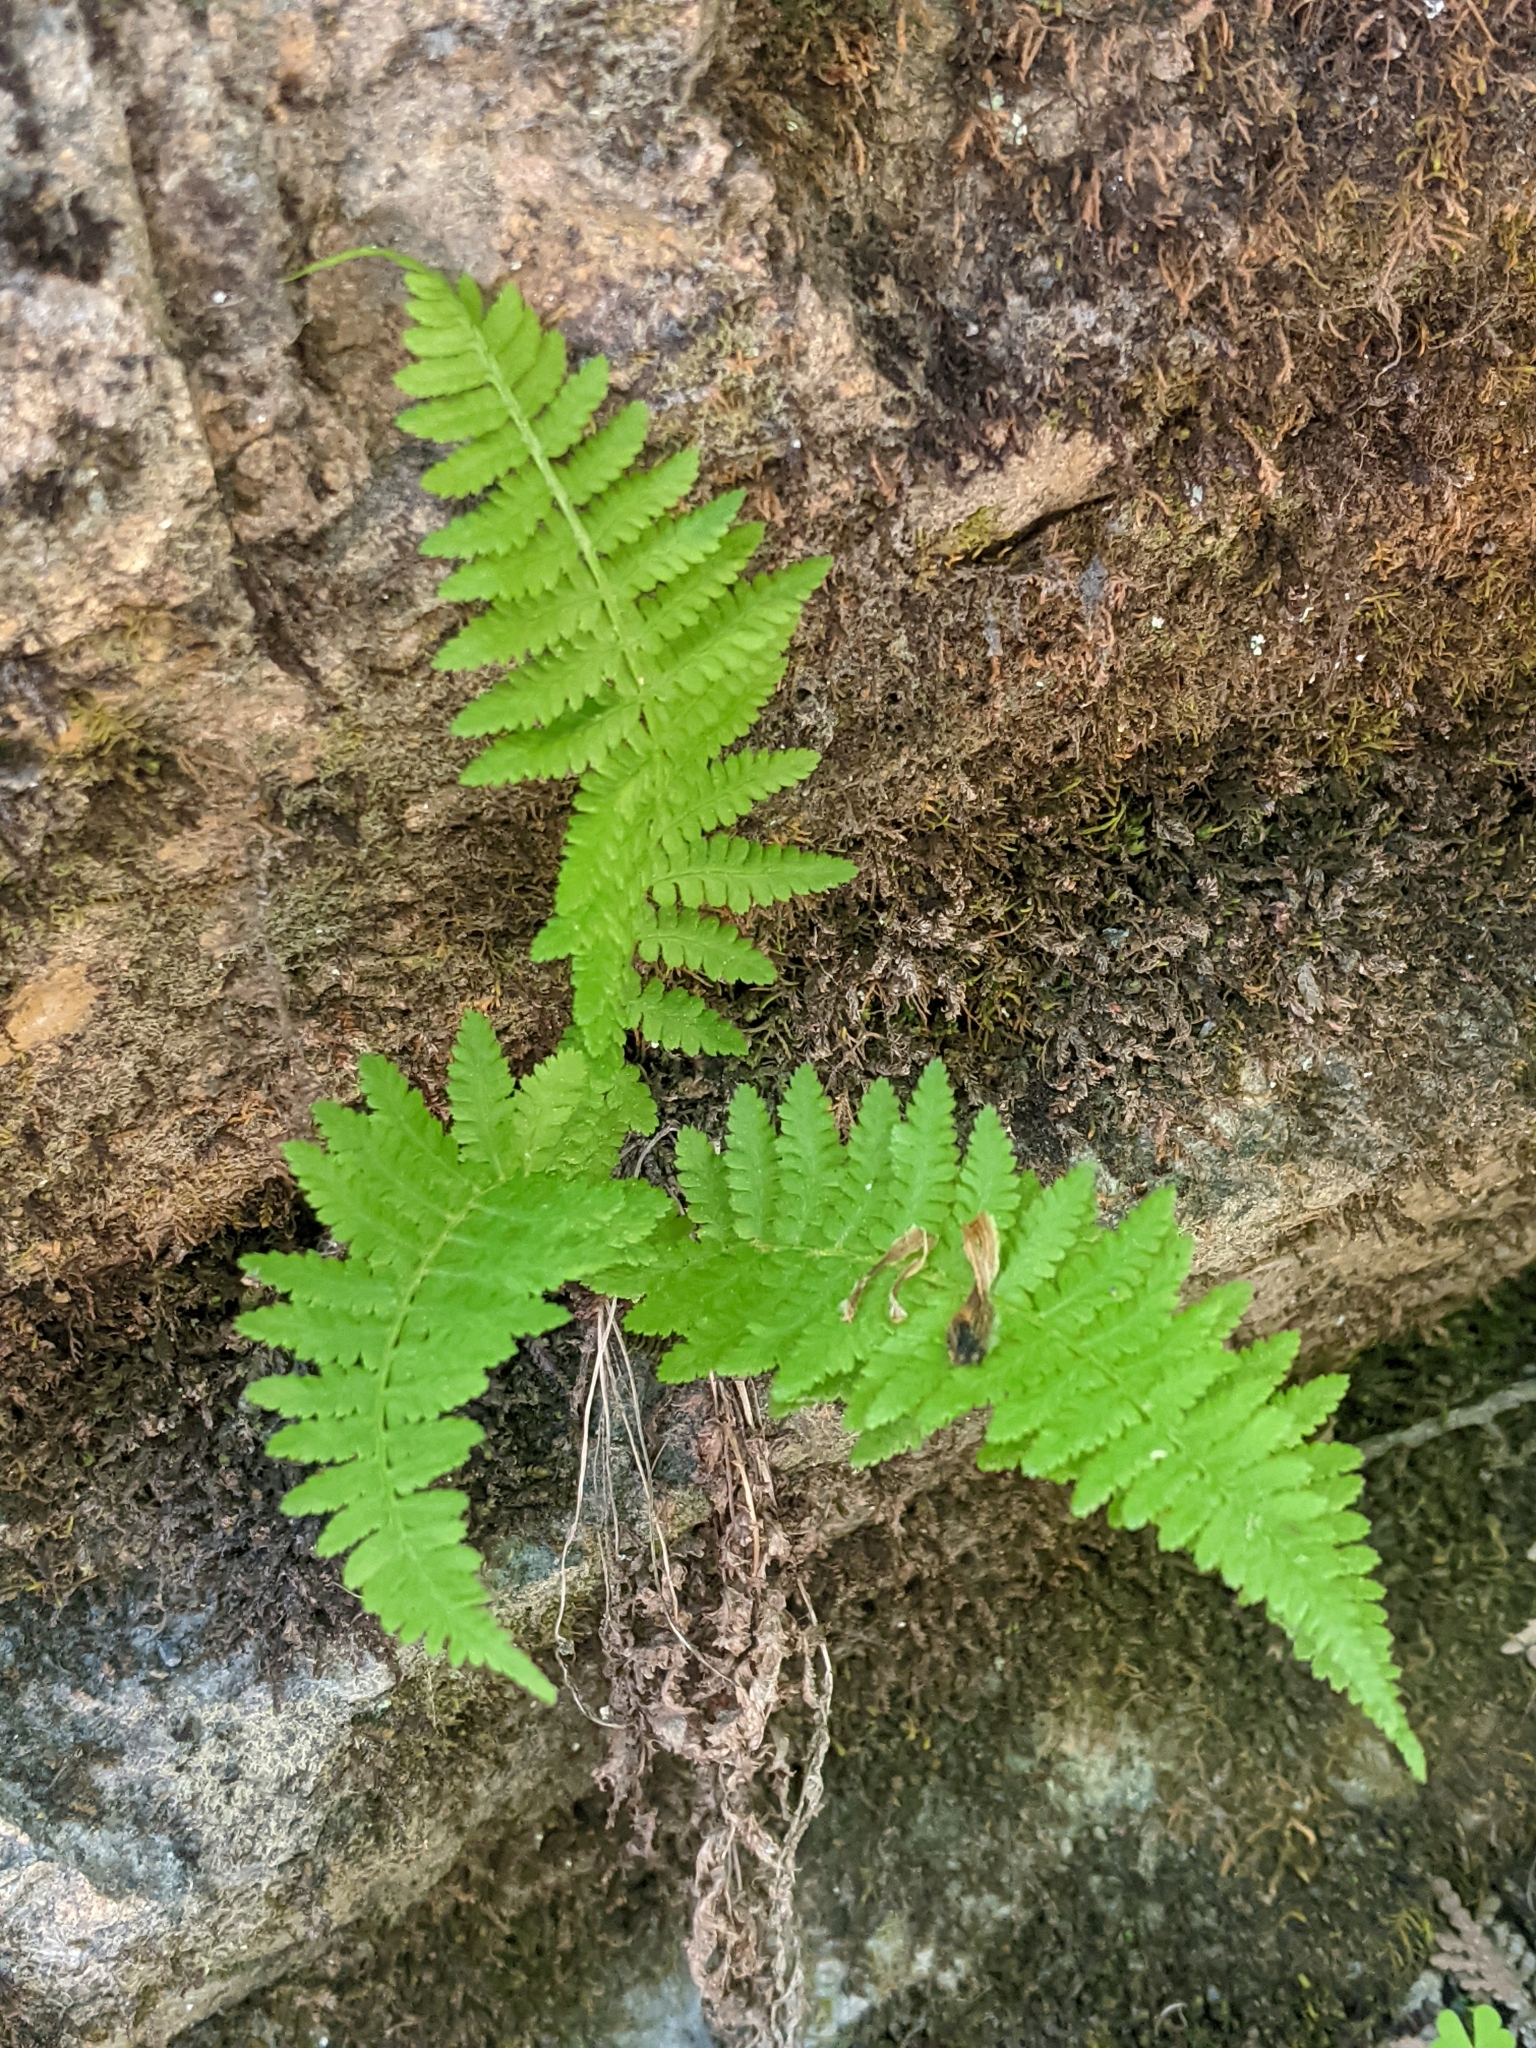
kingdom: Plantae
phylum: Tracheophyta
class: Polypodiopsida
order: Polypodiales
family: Athyriaceae
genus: Athyrium
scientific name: Athyrium angustum
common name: Northern lady fern
